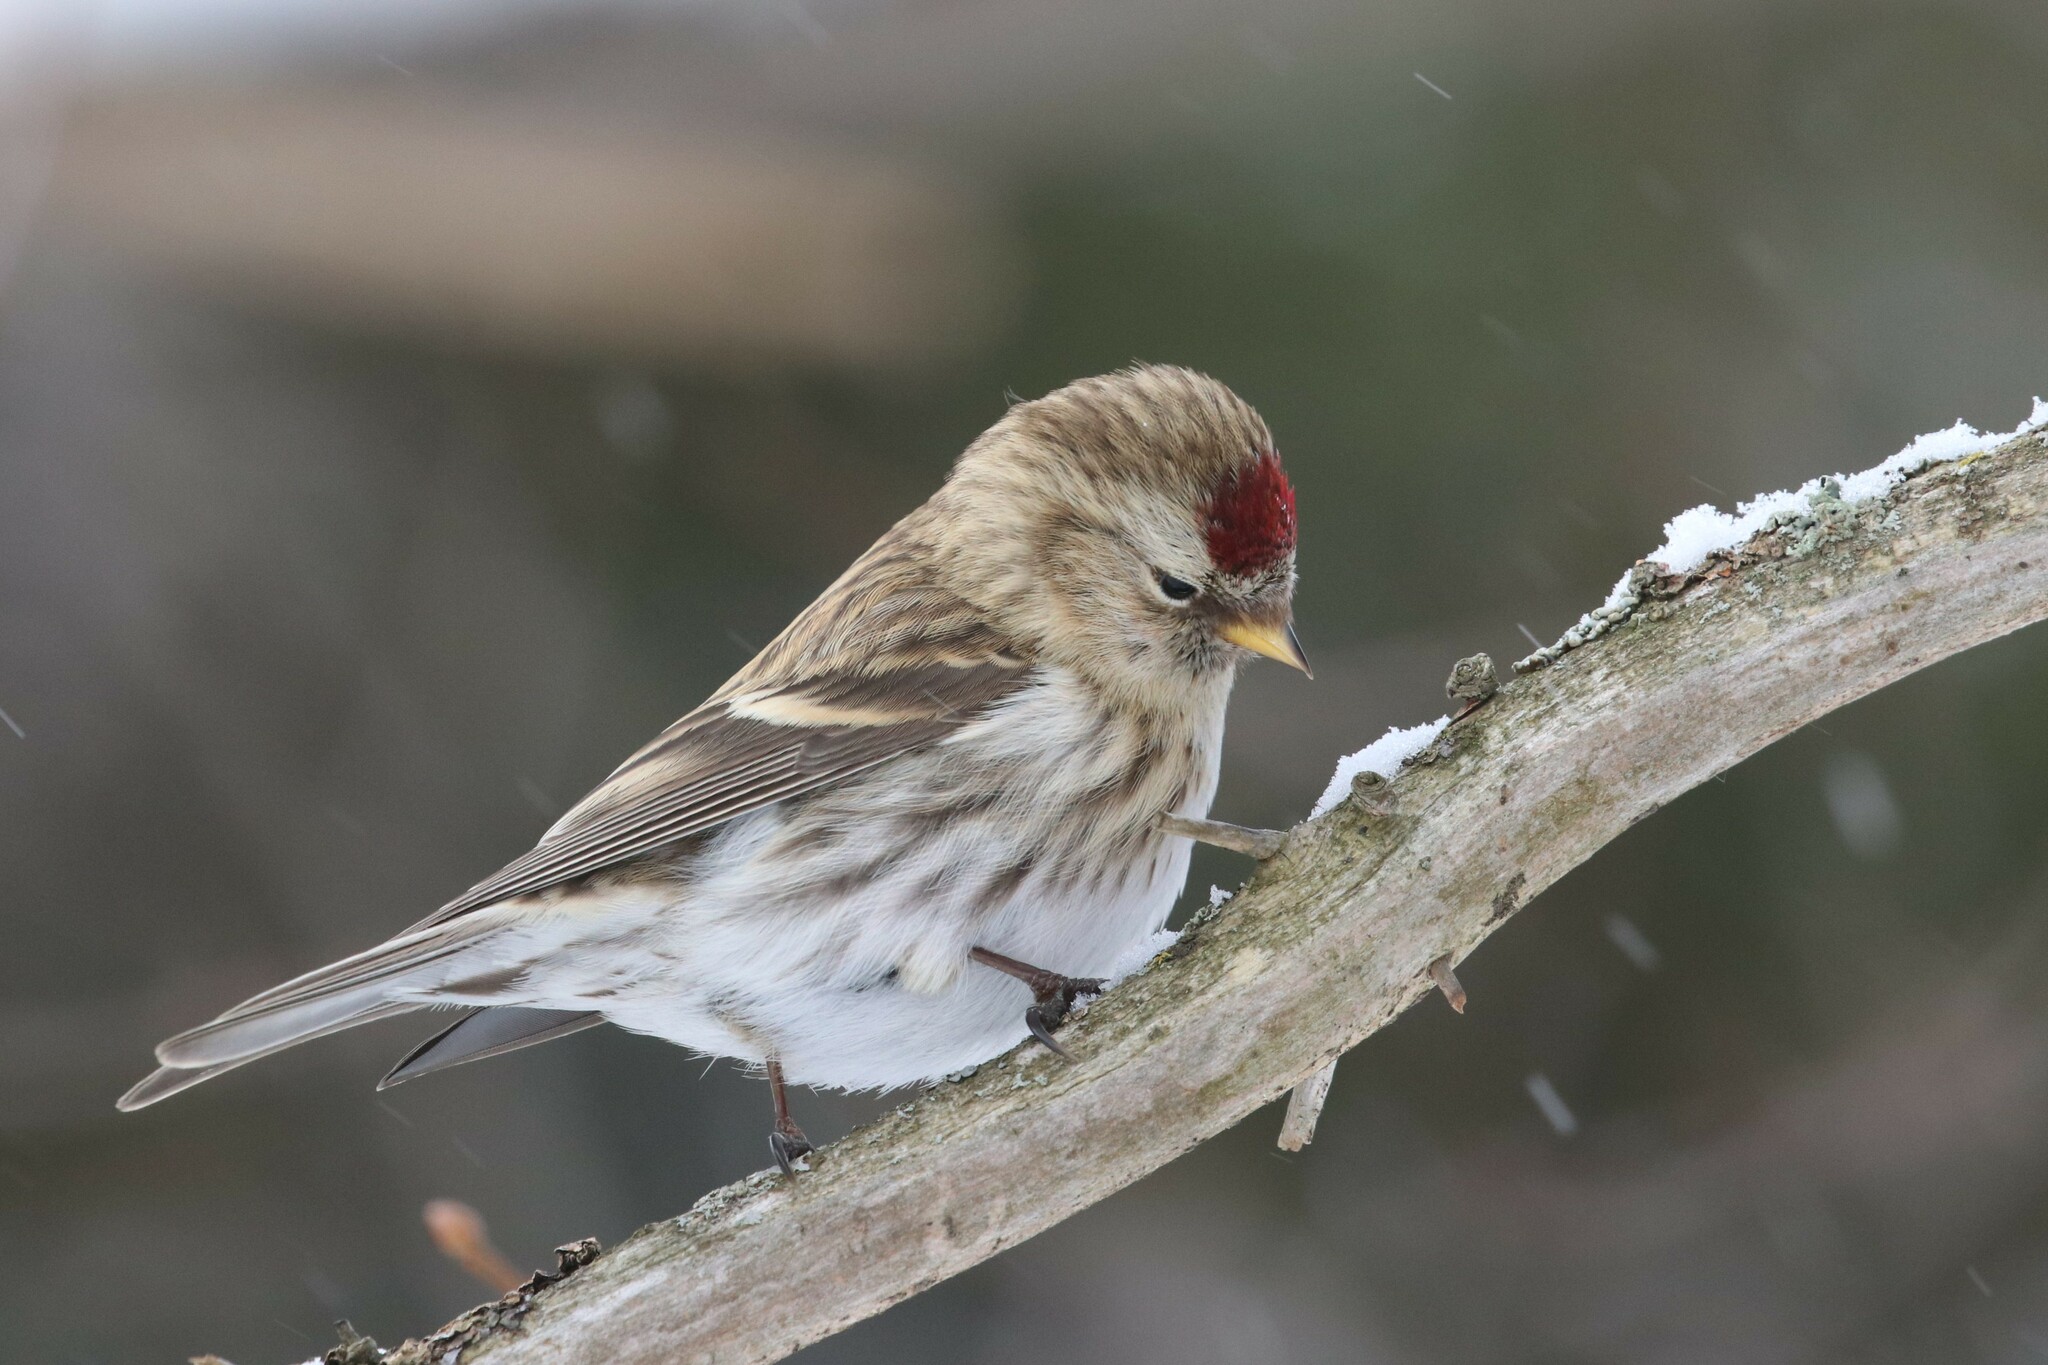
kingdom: Animalia
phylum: Chordata
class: Aves
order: Passeriformes
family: Fringillidae
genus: Acanthis
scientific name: Acanthis flammea
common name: Common redpoll
